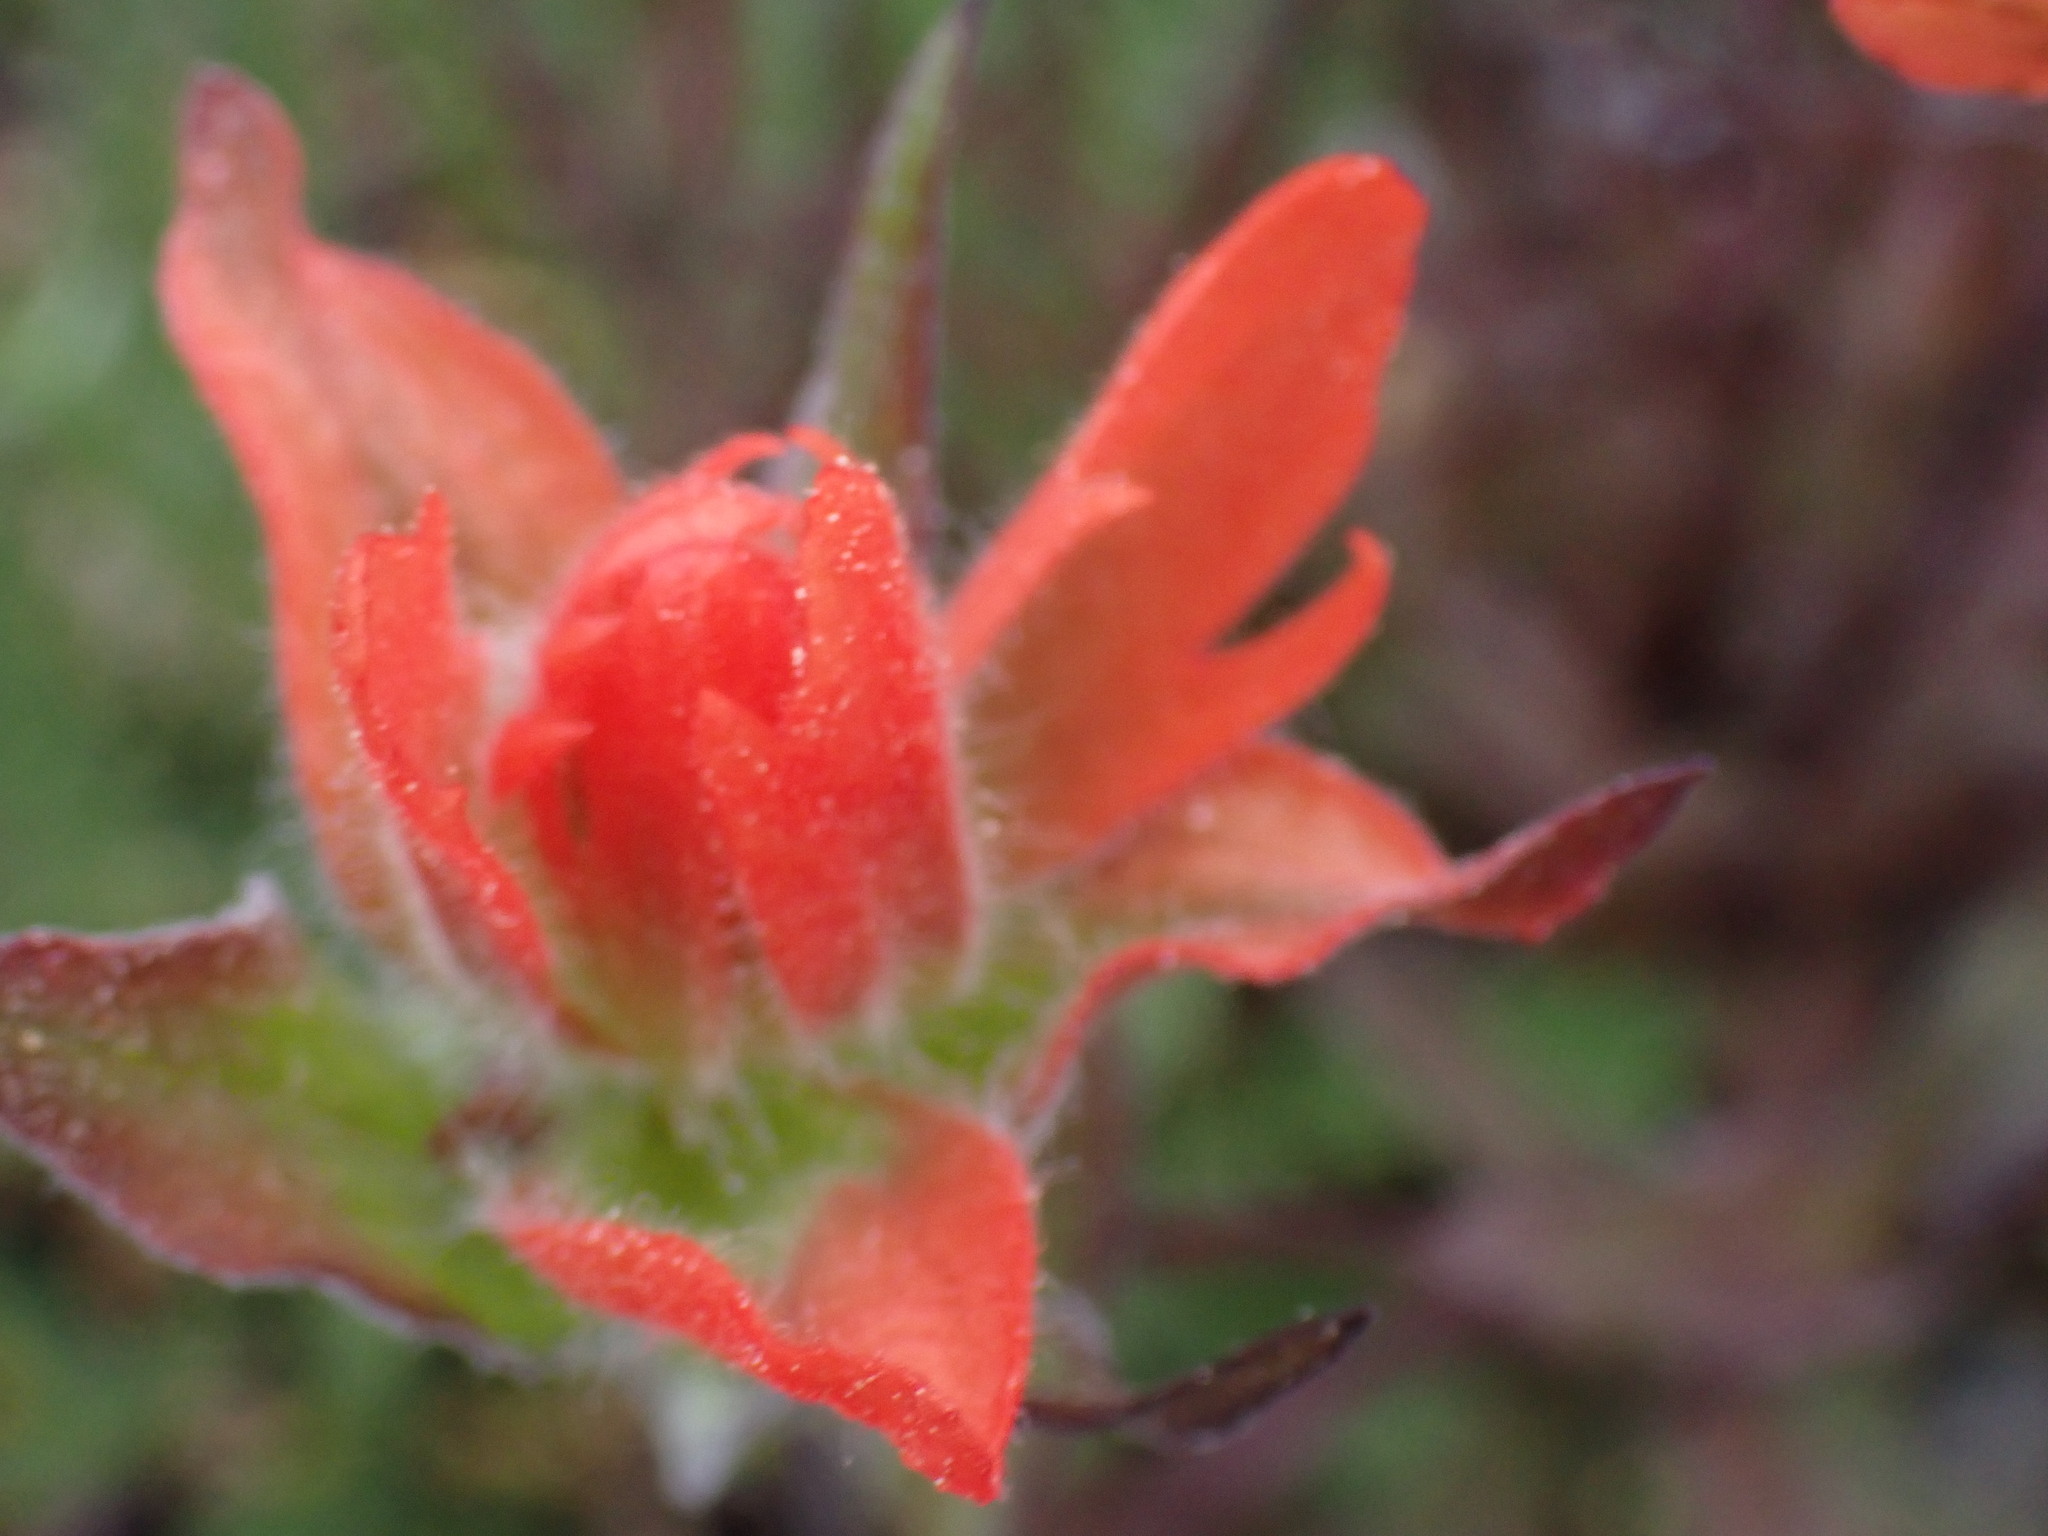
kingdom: Plantae
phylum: Tracheophyta
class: Magnoliopsida
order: Lamiales
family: Orobanchaceae
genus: Castilleja
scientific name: Castilleja miniata
